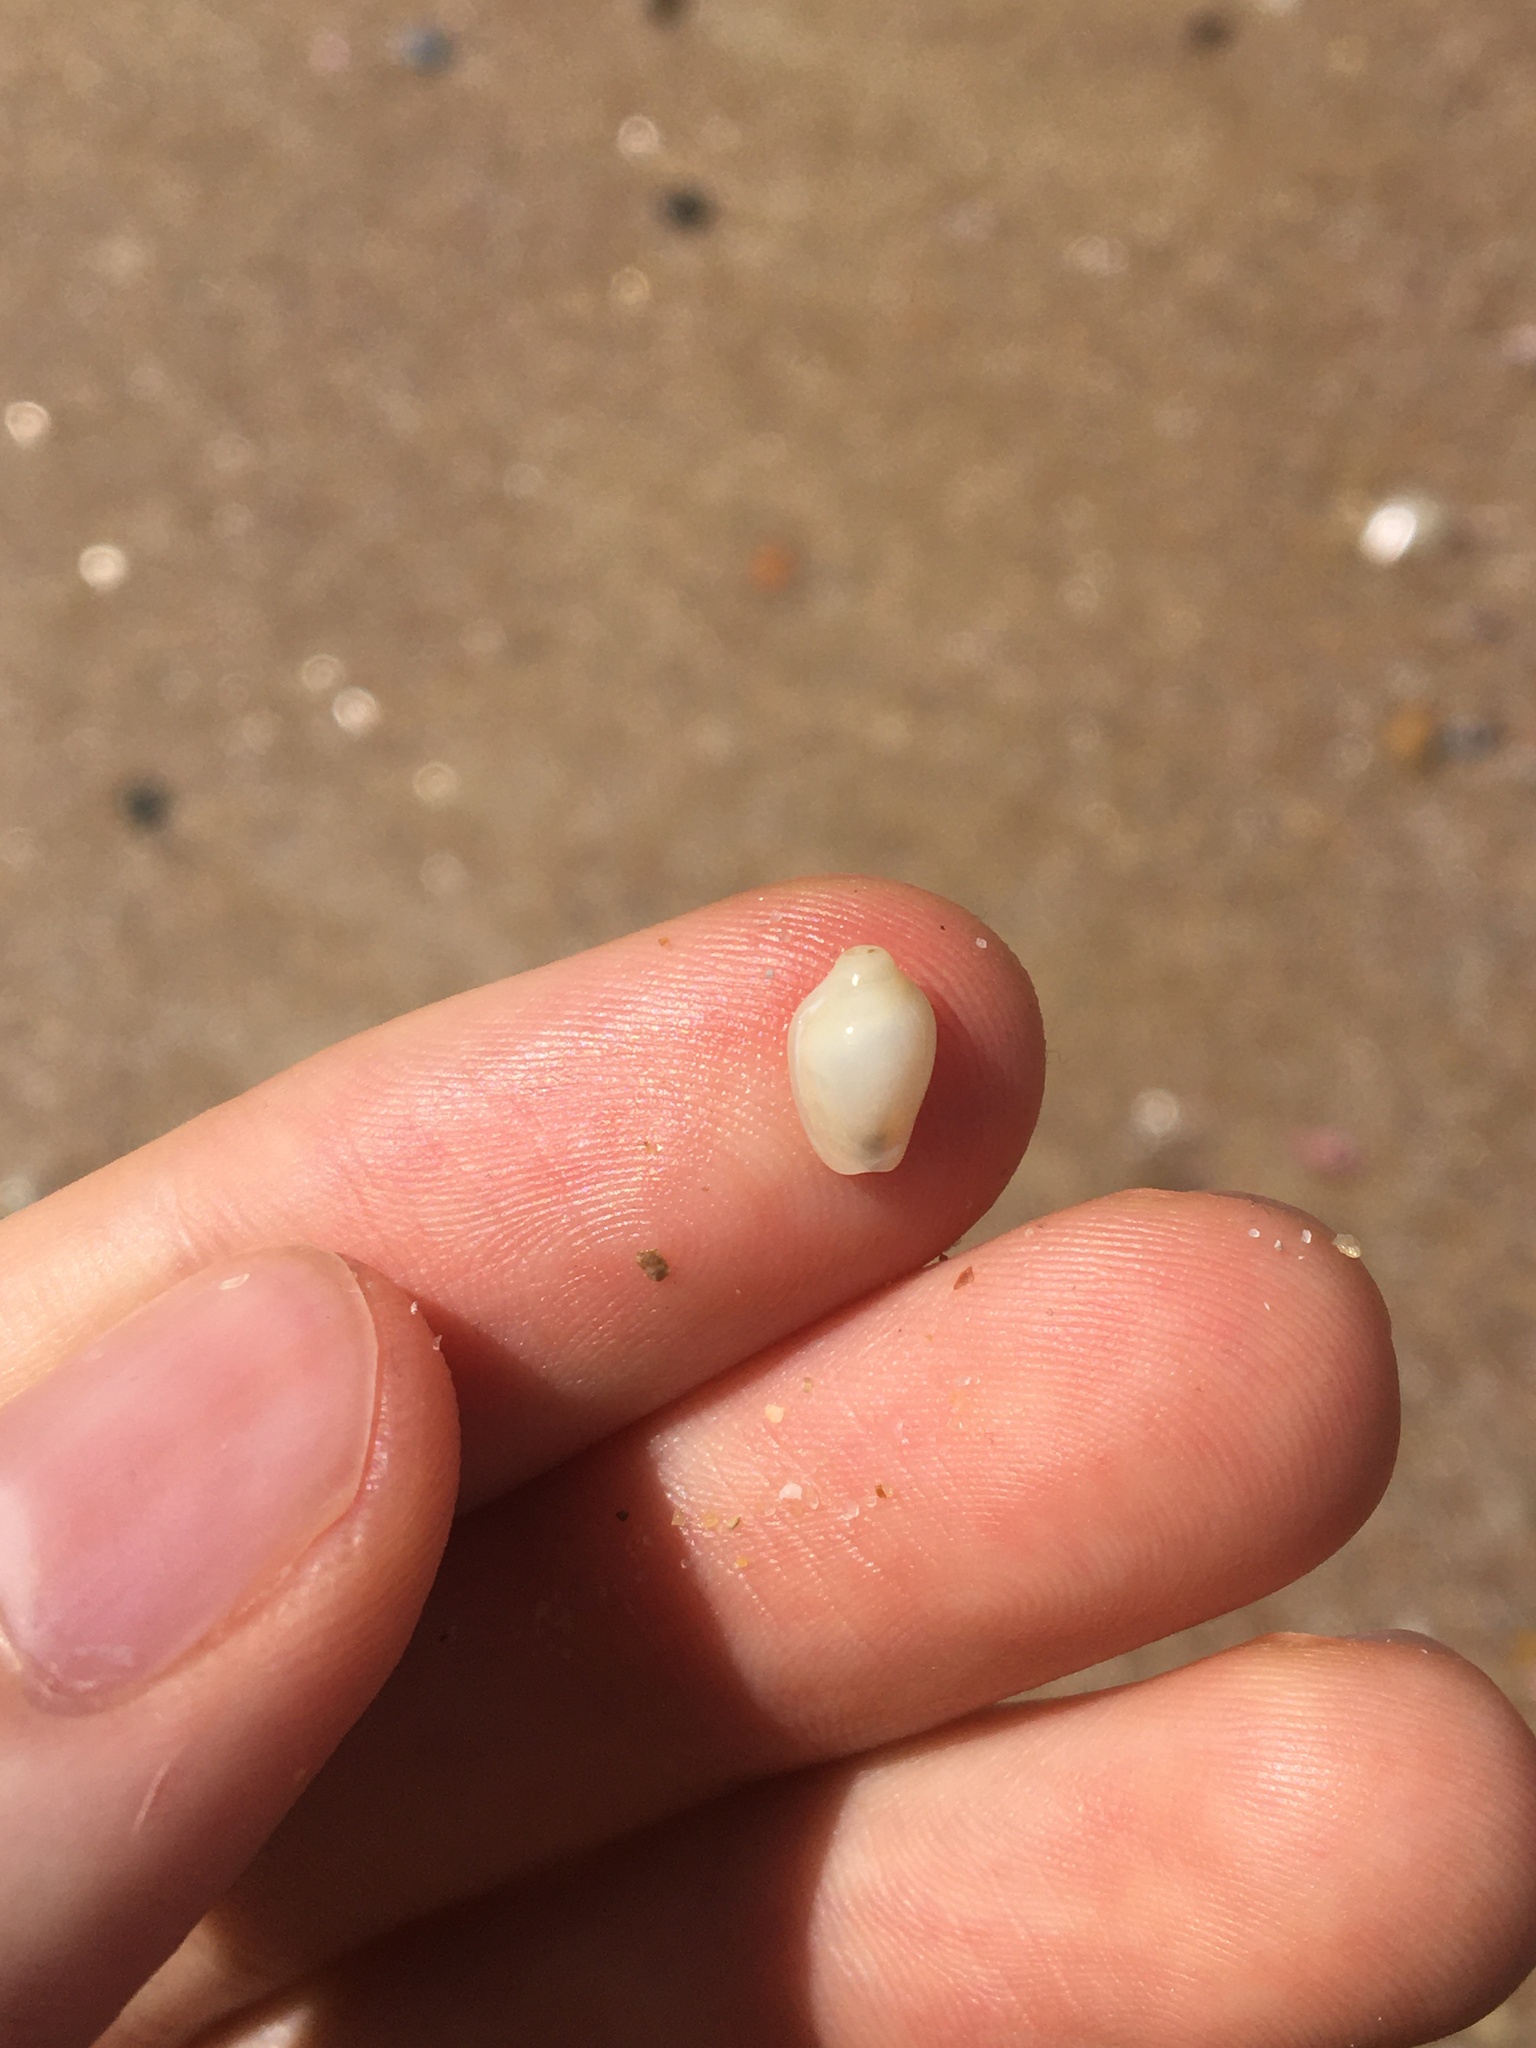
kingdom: Animalia
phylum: Mollusca
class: Gastropoda
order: Neogastropoda
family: Marginellidae
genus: Austroginella
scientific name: Austroginella johnstoni
